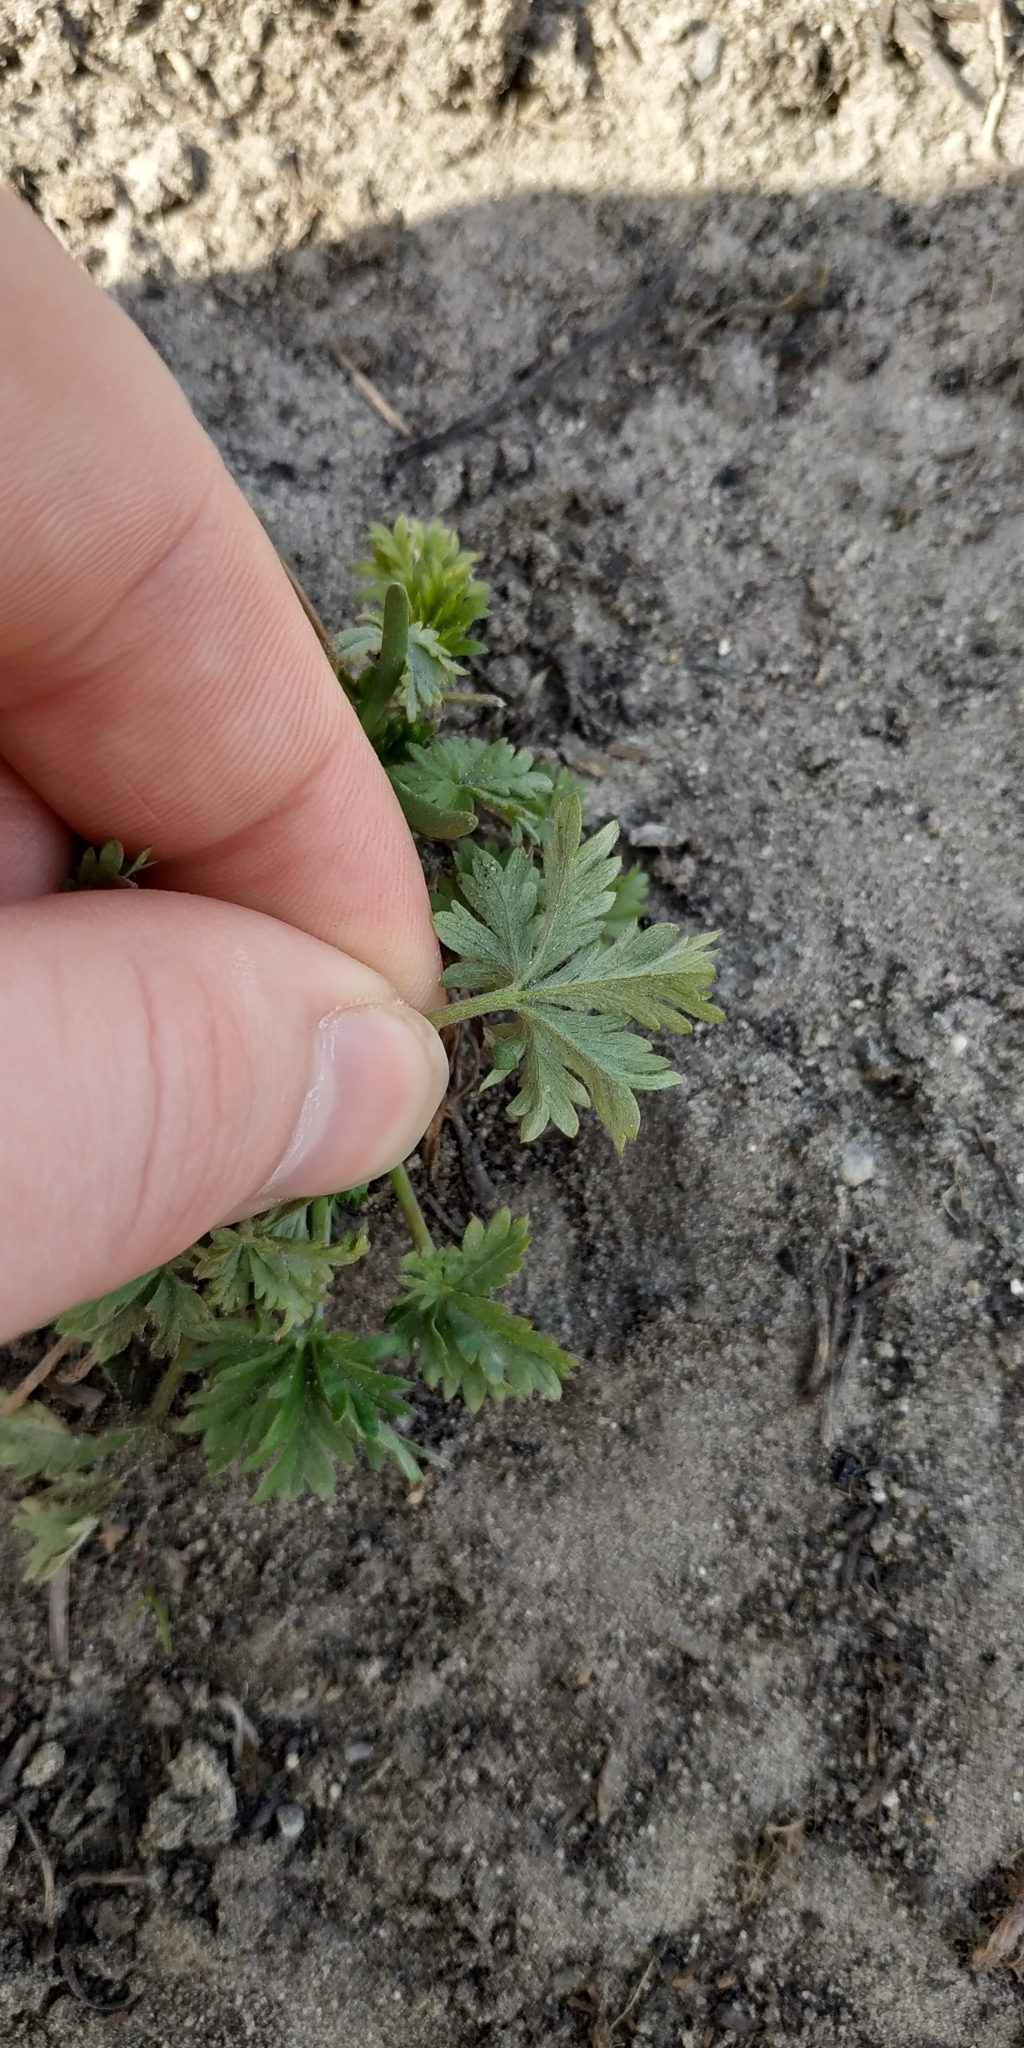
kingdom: Plantae
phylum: Tracheophyta
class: Magnoliopsida
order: Rosales
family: Rosaceae
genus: Potentilla
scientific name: Potentilla argentea
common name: Hoary cinquefoil
